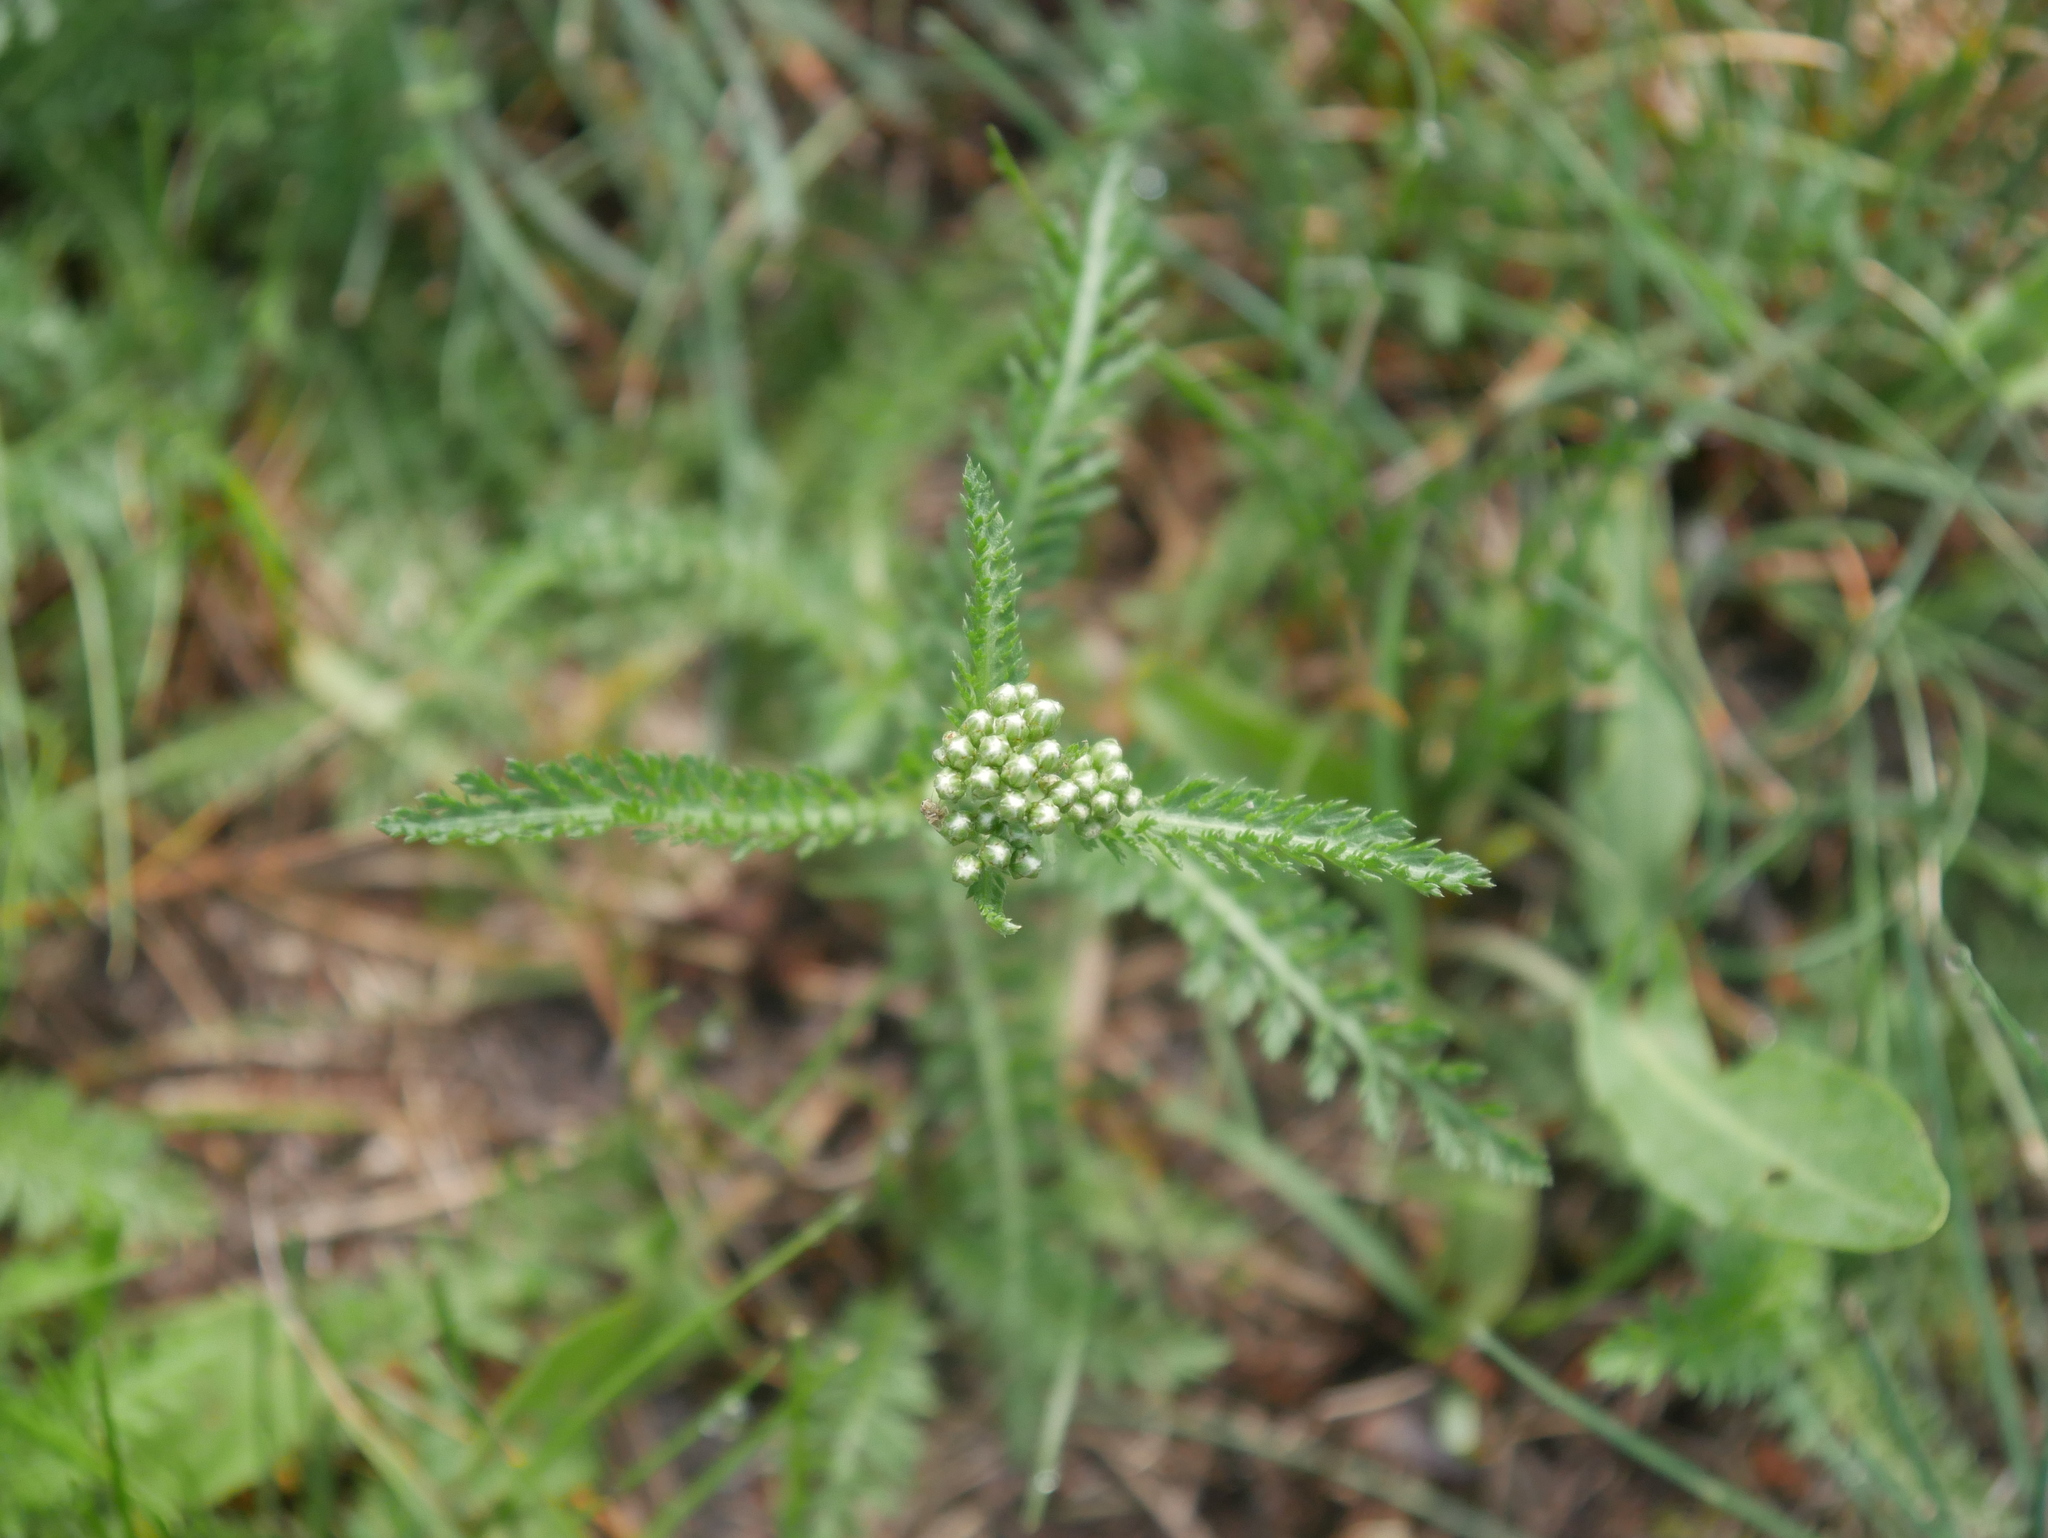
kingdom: Plantae
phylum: Tracheophyta
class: Magnoliopsida
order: Asterales
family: Asteraceae
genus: Achillea
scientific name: Achillea millefolium
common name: Yarrow
